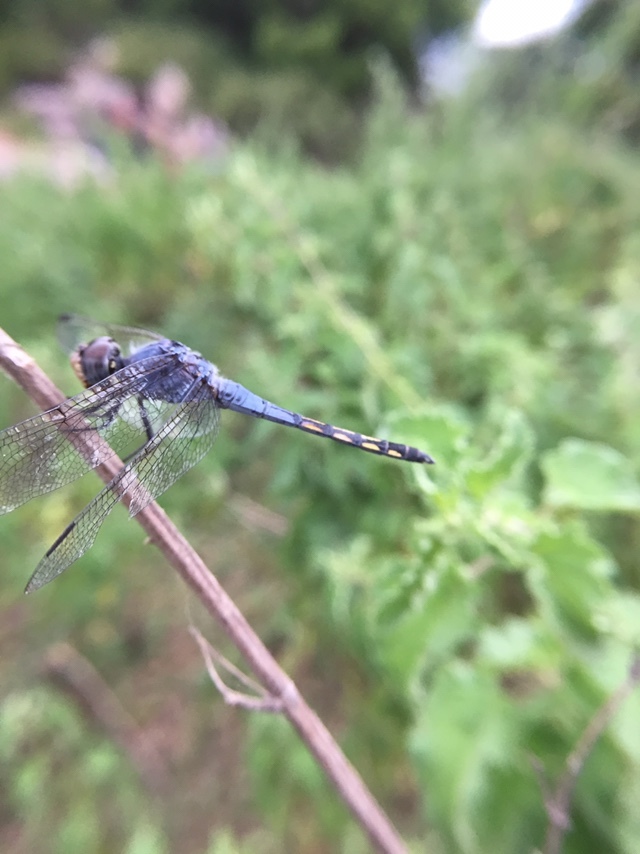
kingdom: Animalia
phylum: Arthropoda
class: Insecta
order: Odonata
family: Libellulidae
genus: Potamarcha
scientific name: Potamarcha congener
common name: Blue chaser
